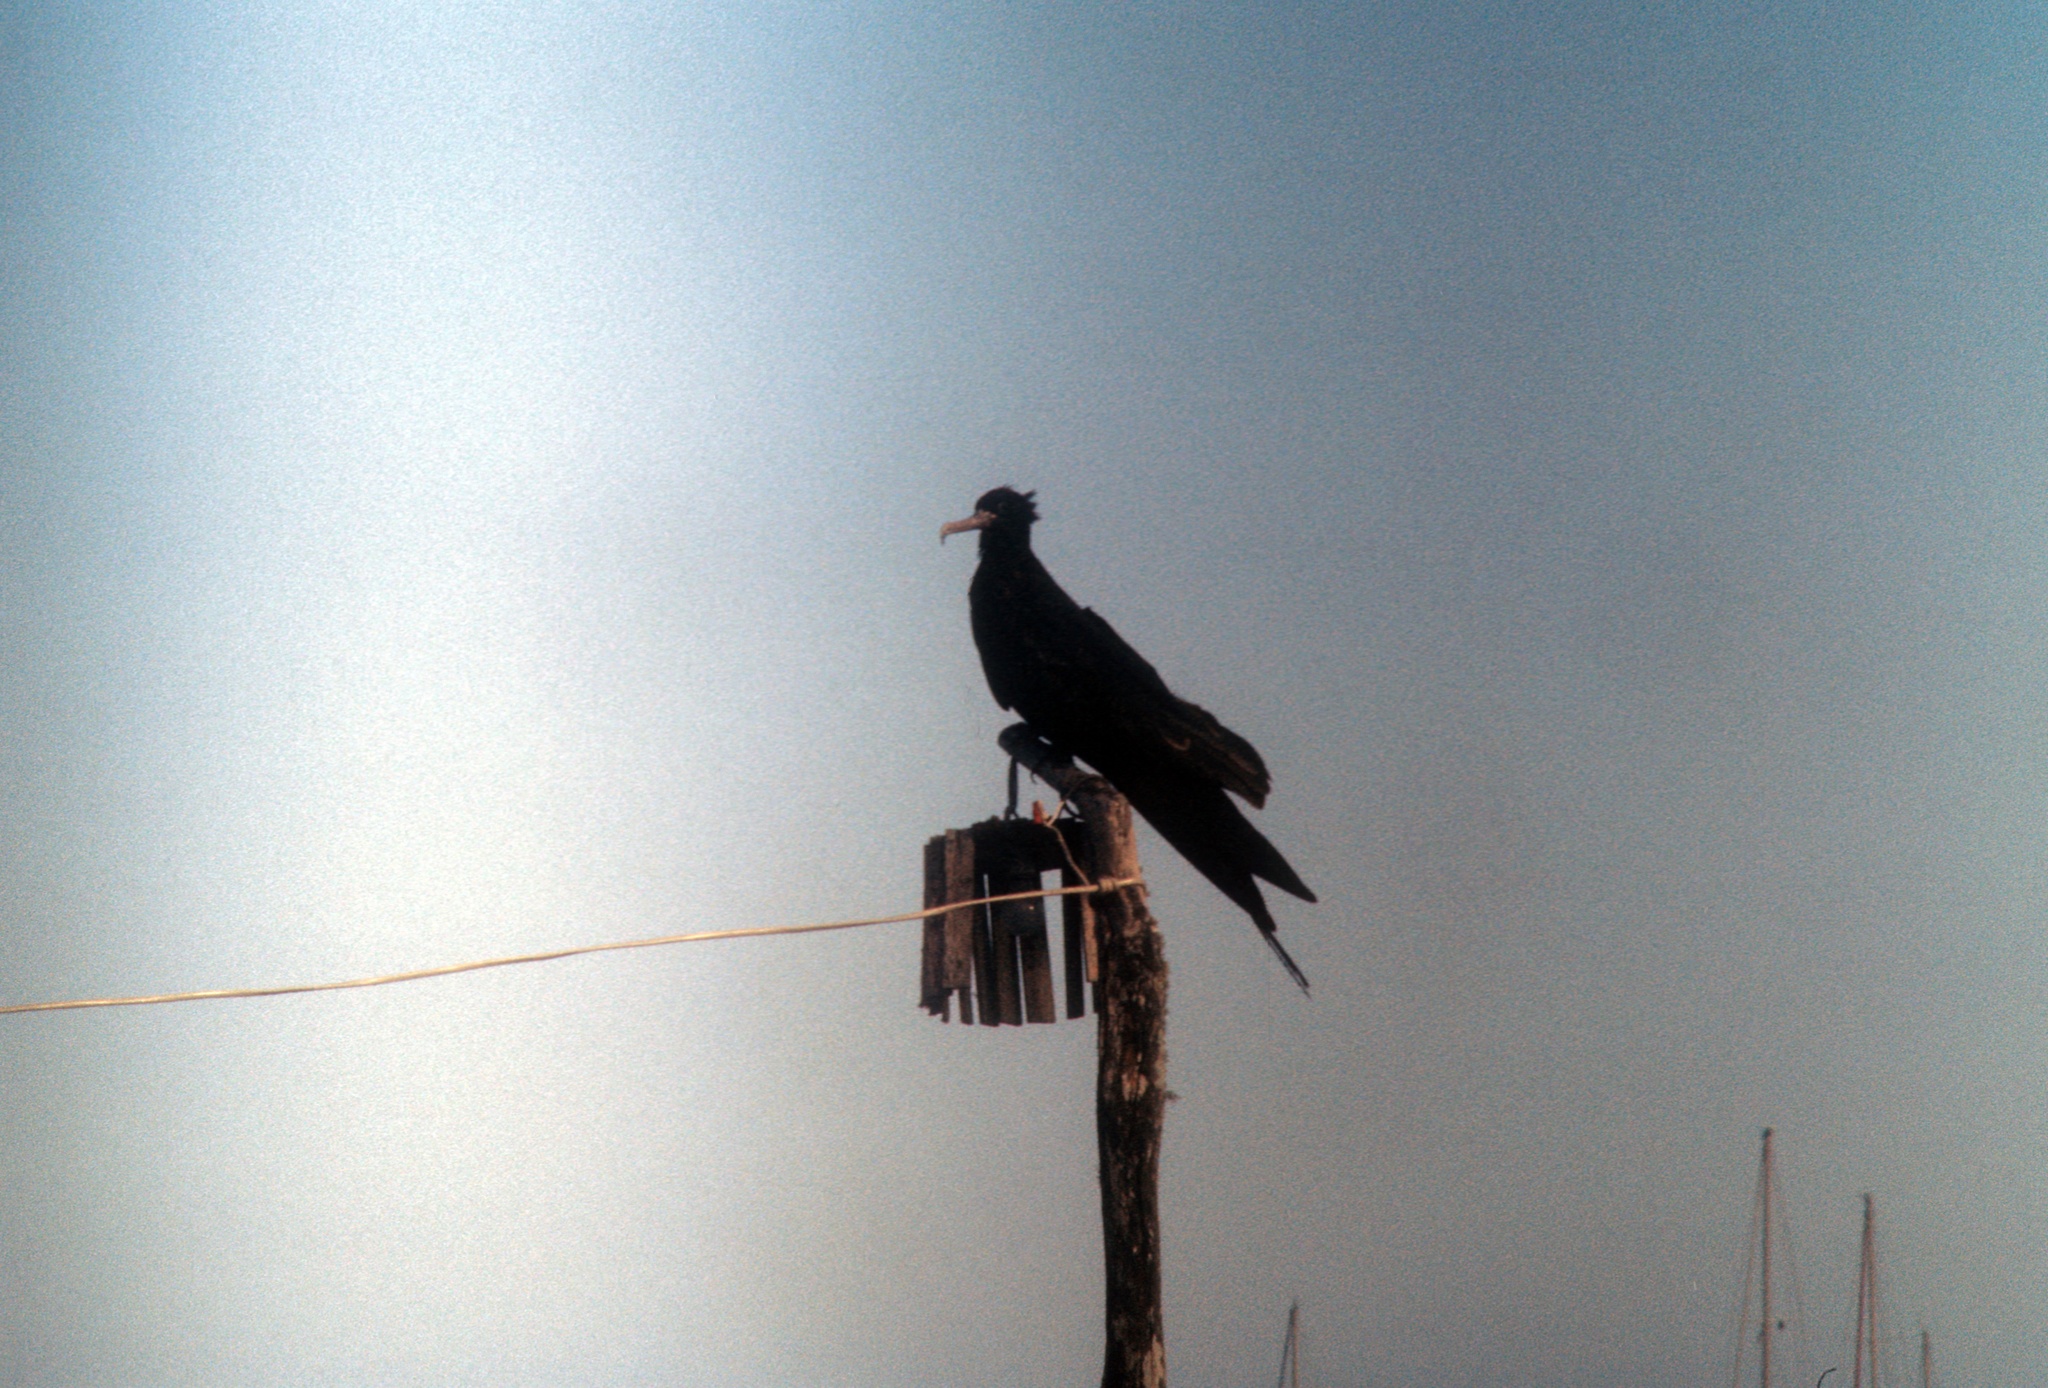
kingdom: Animalia
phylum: Chordata
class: Aves
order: Suliformes
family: Fregatidae
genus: Fregata
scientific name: Fregata magnificens
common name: Magnificent frigatebird
